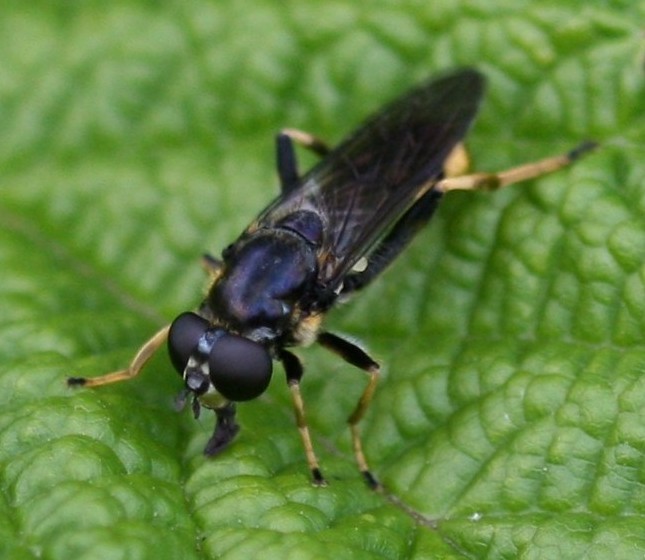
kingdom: Animalia
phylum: Arthropoda
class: Insecta
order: Diptera
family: Syrphidae
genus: Xylota
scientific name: Xylota sylvarum
